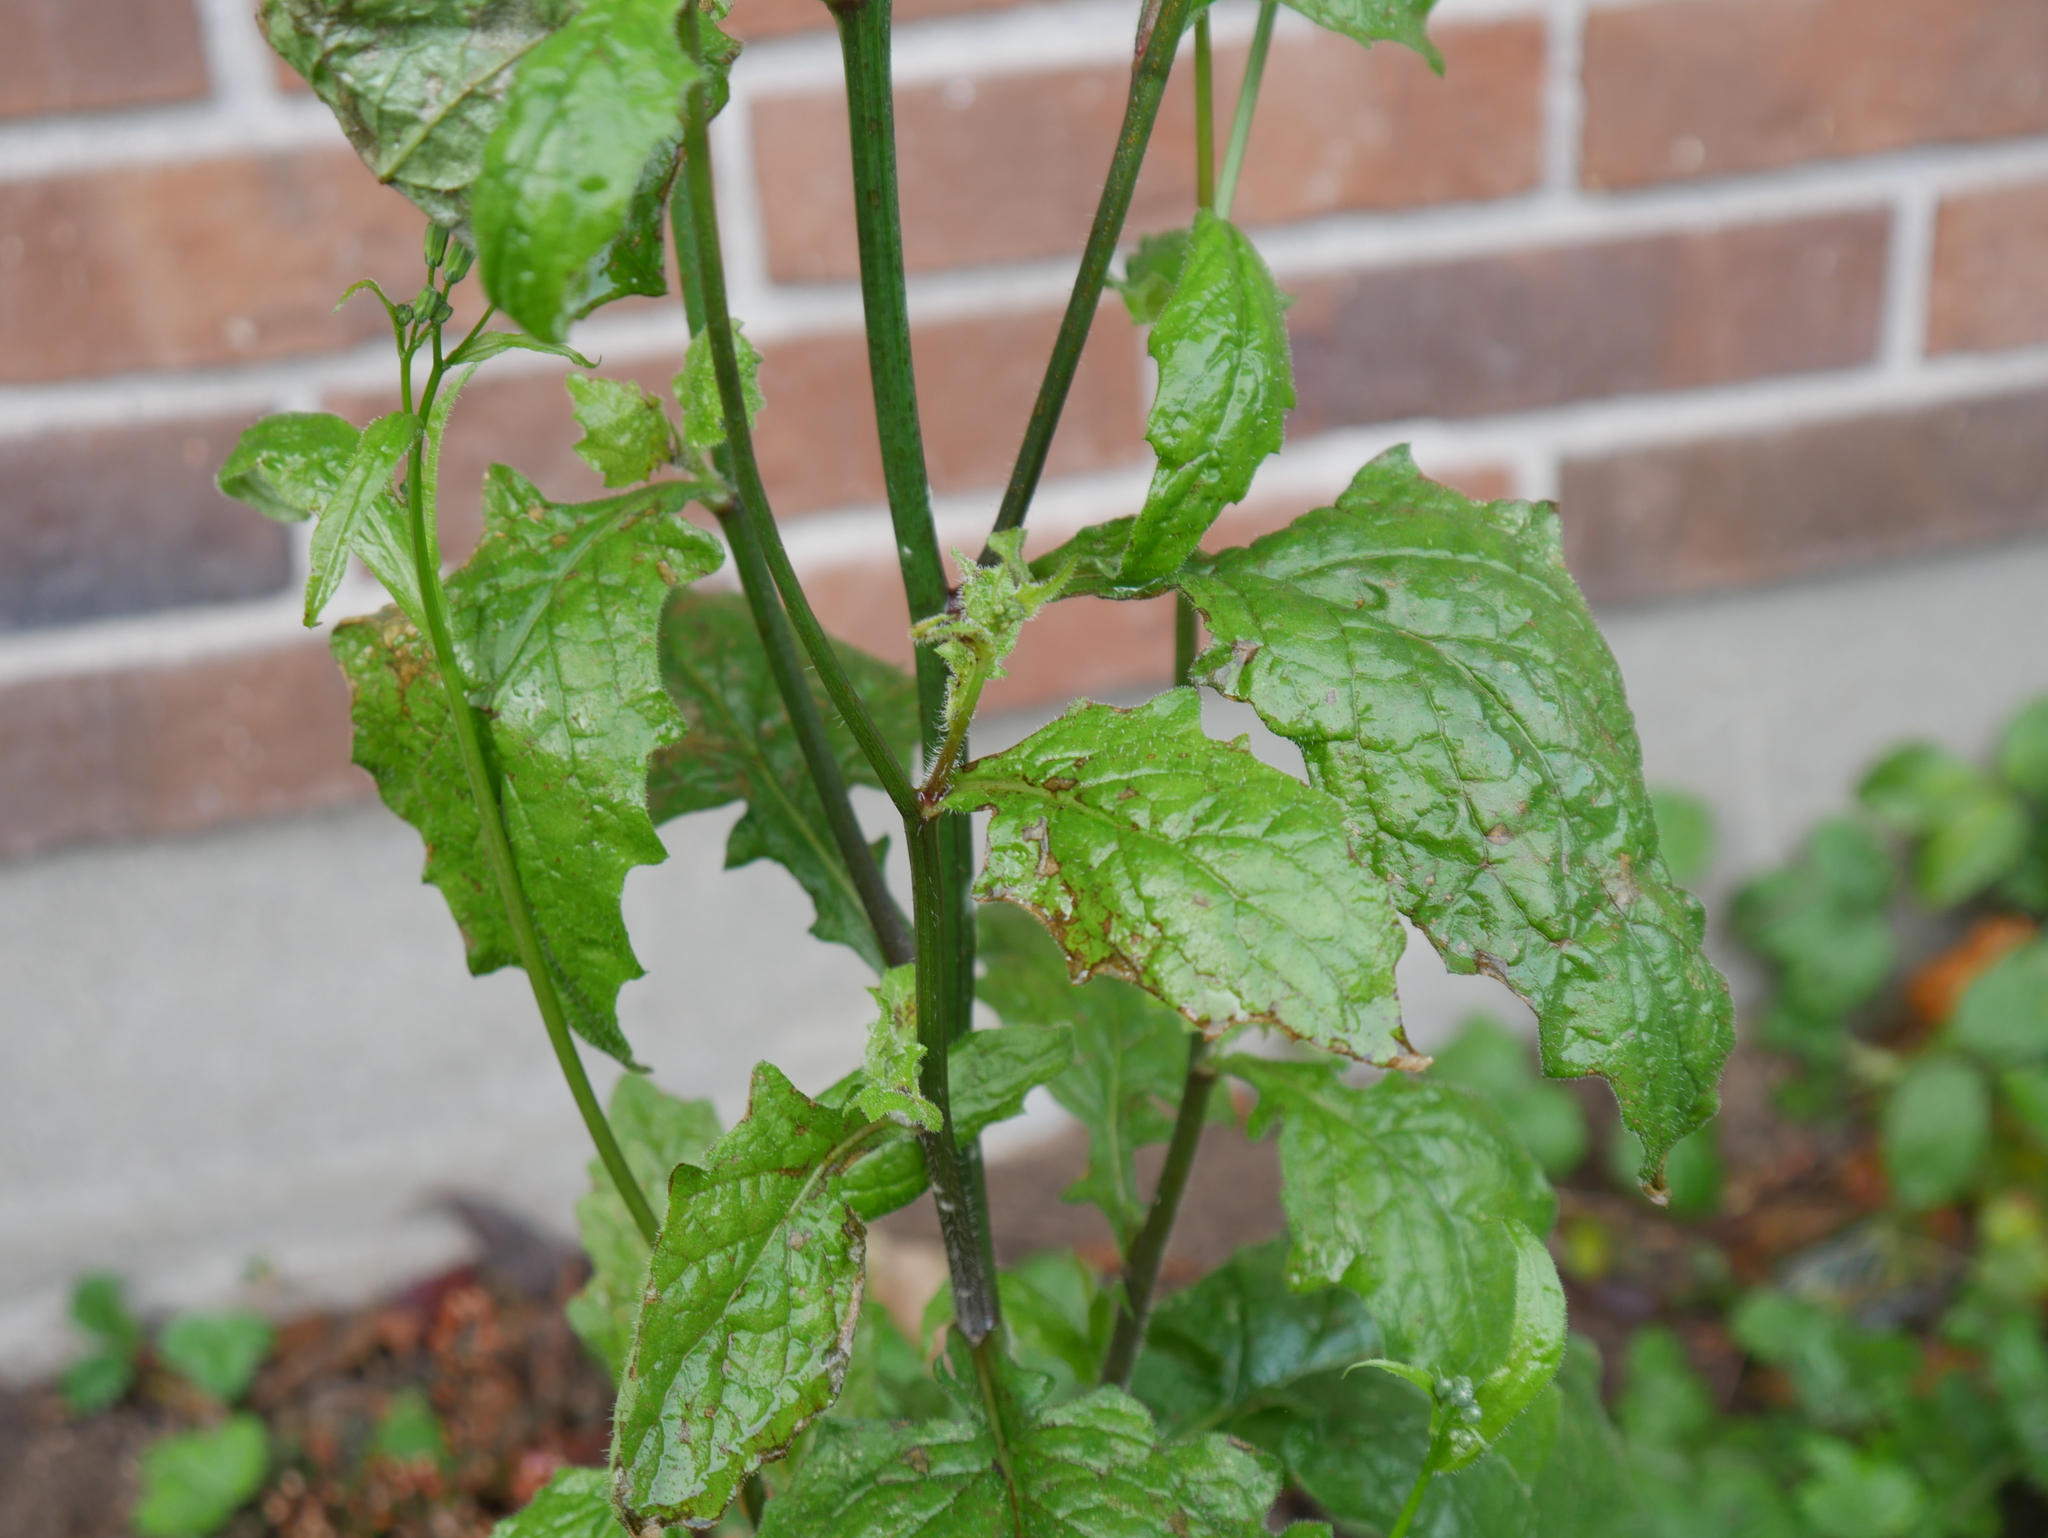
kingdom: Plantae
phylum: Tracheophyta
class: Magnoliopsida
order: Asterales
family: Asteraceae
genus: Lapsana
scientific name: Lapsana communis
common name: Nipplewort
